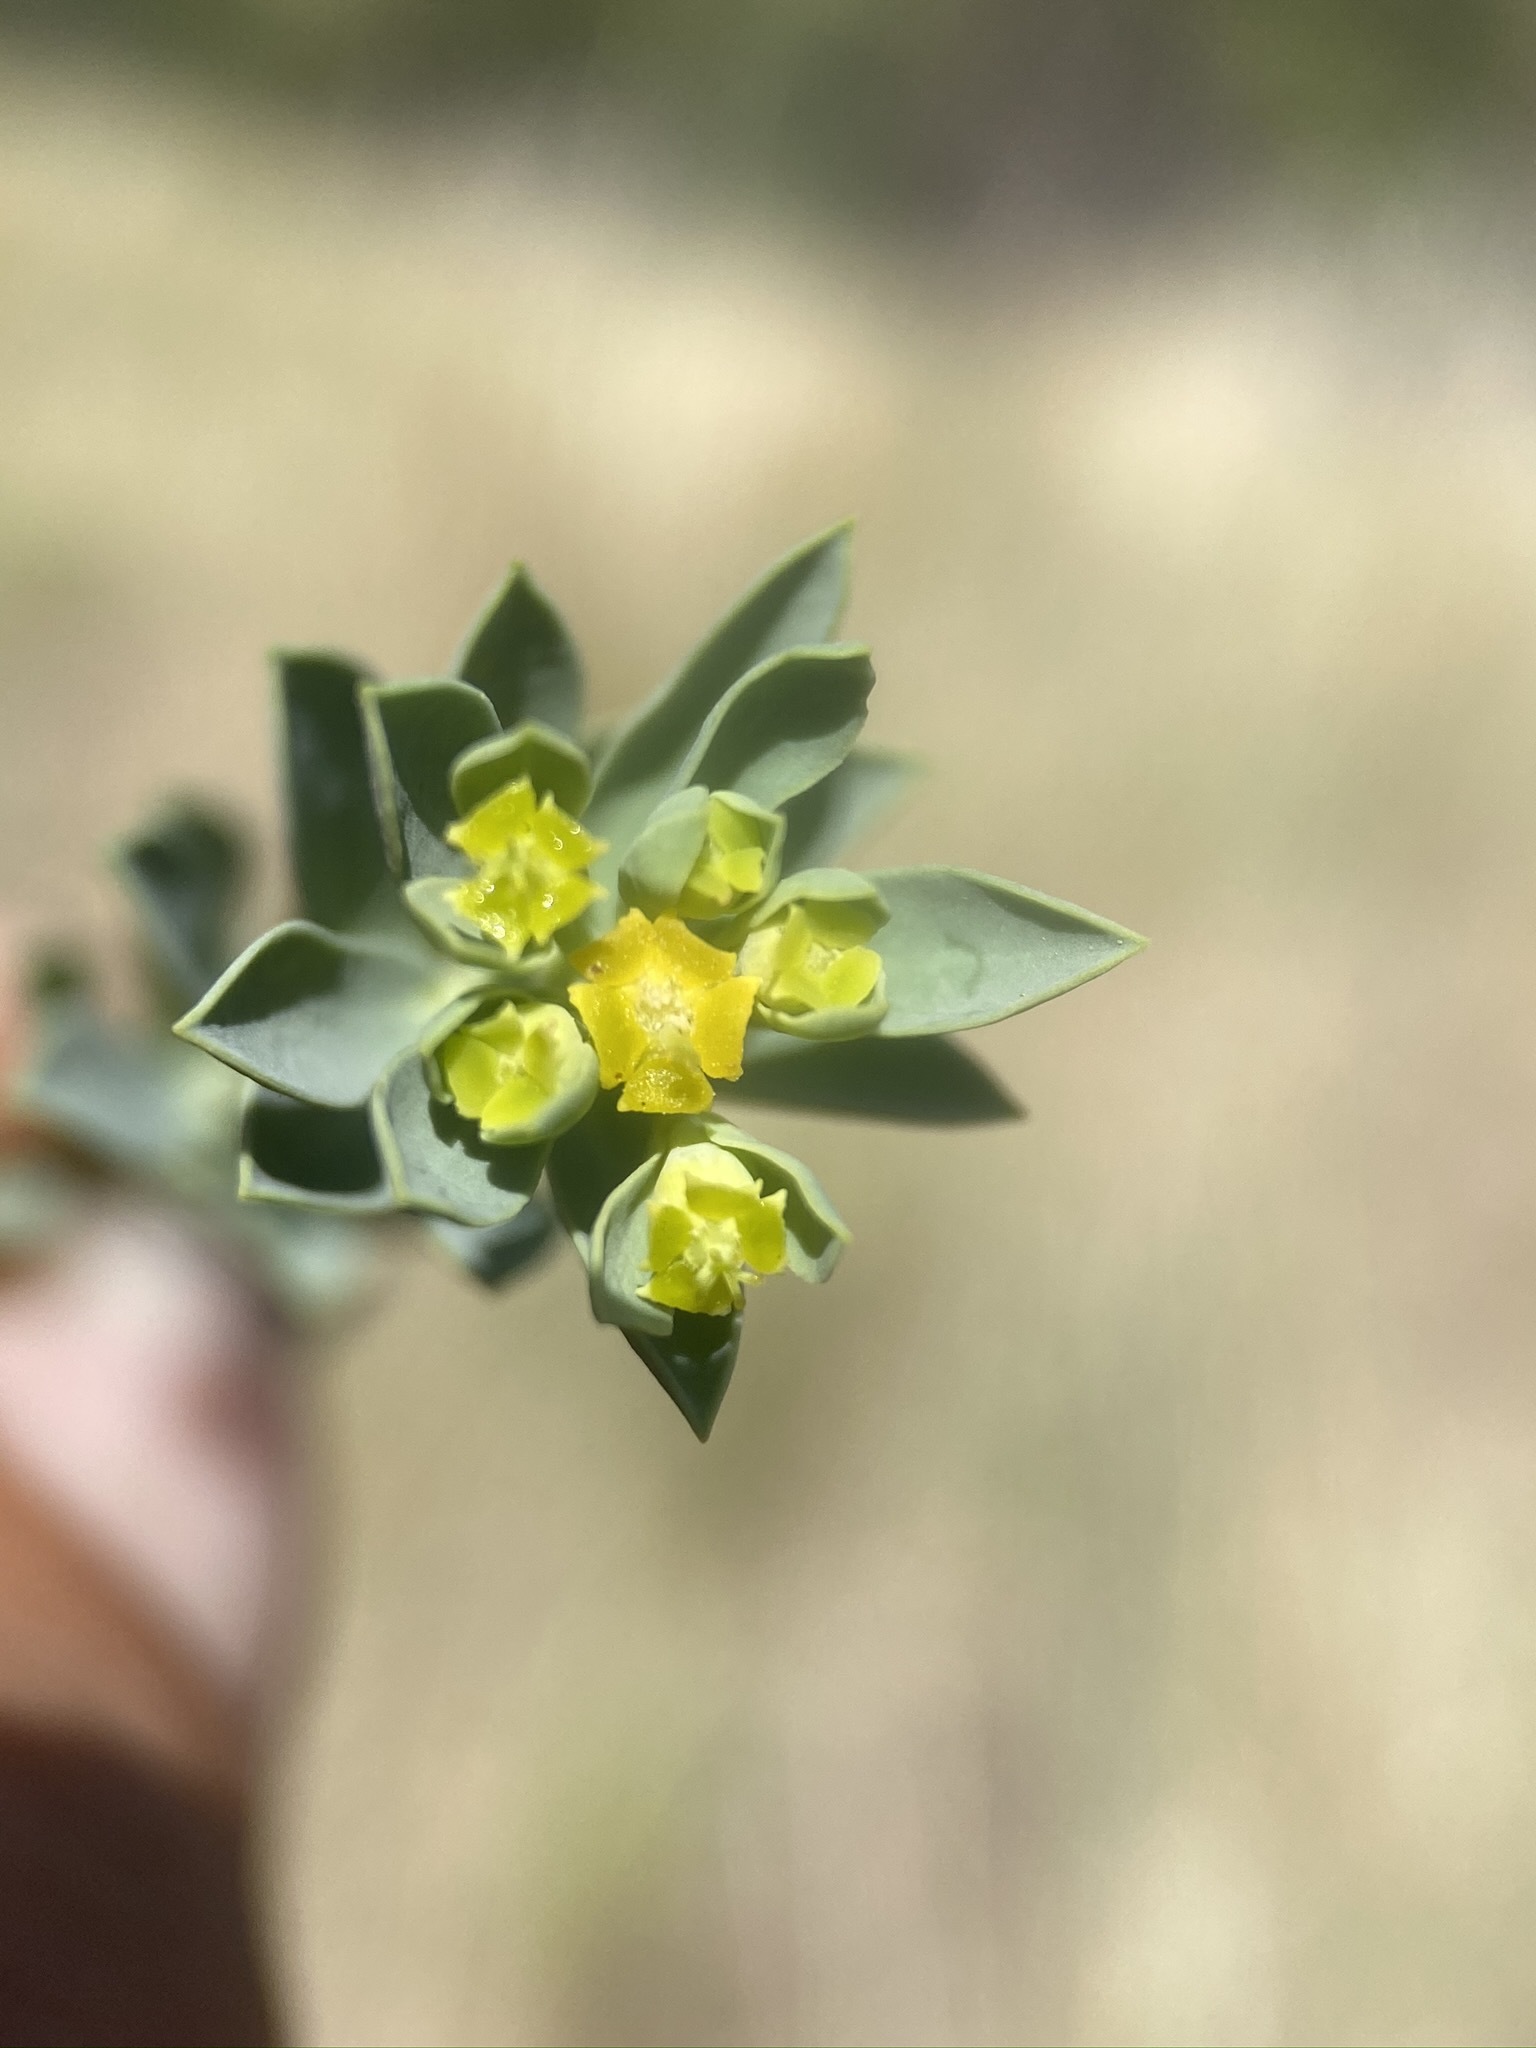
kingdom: Plantae
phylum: Tracheophyta
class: Magnoliopsida
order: Malpighiales
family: Euphorbiaceae
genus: Euphorbia
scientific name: Euphorbia lurida
